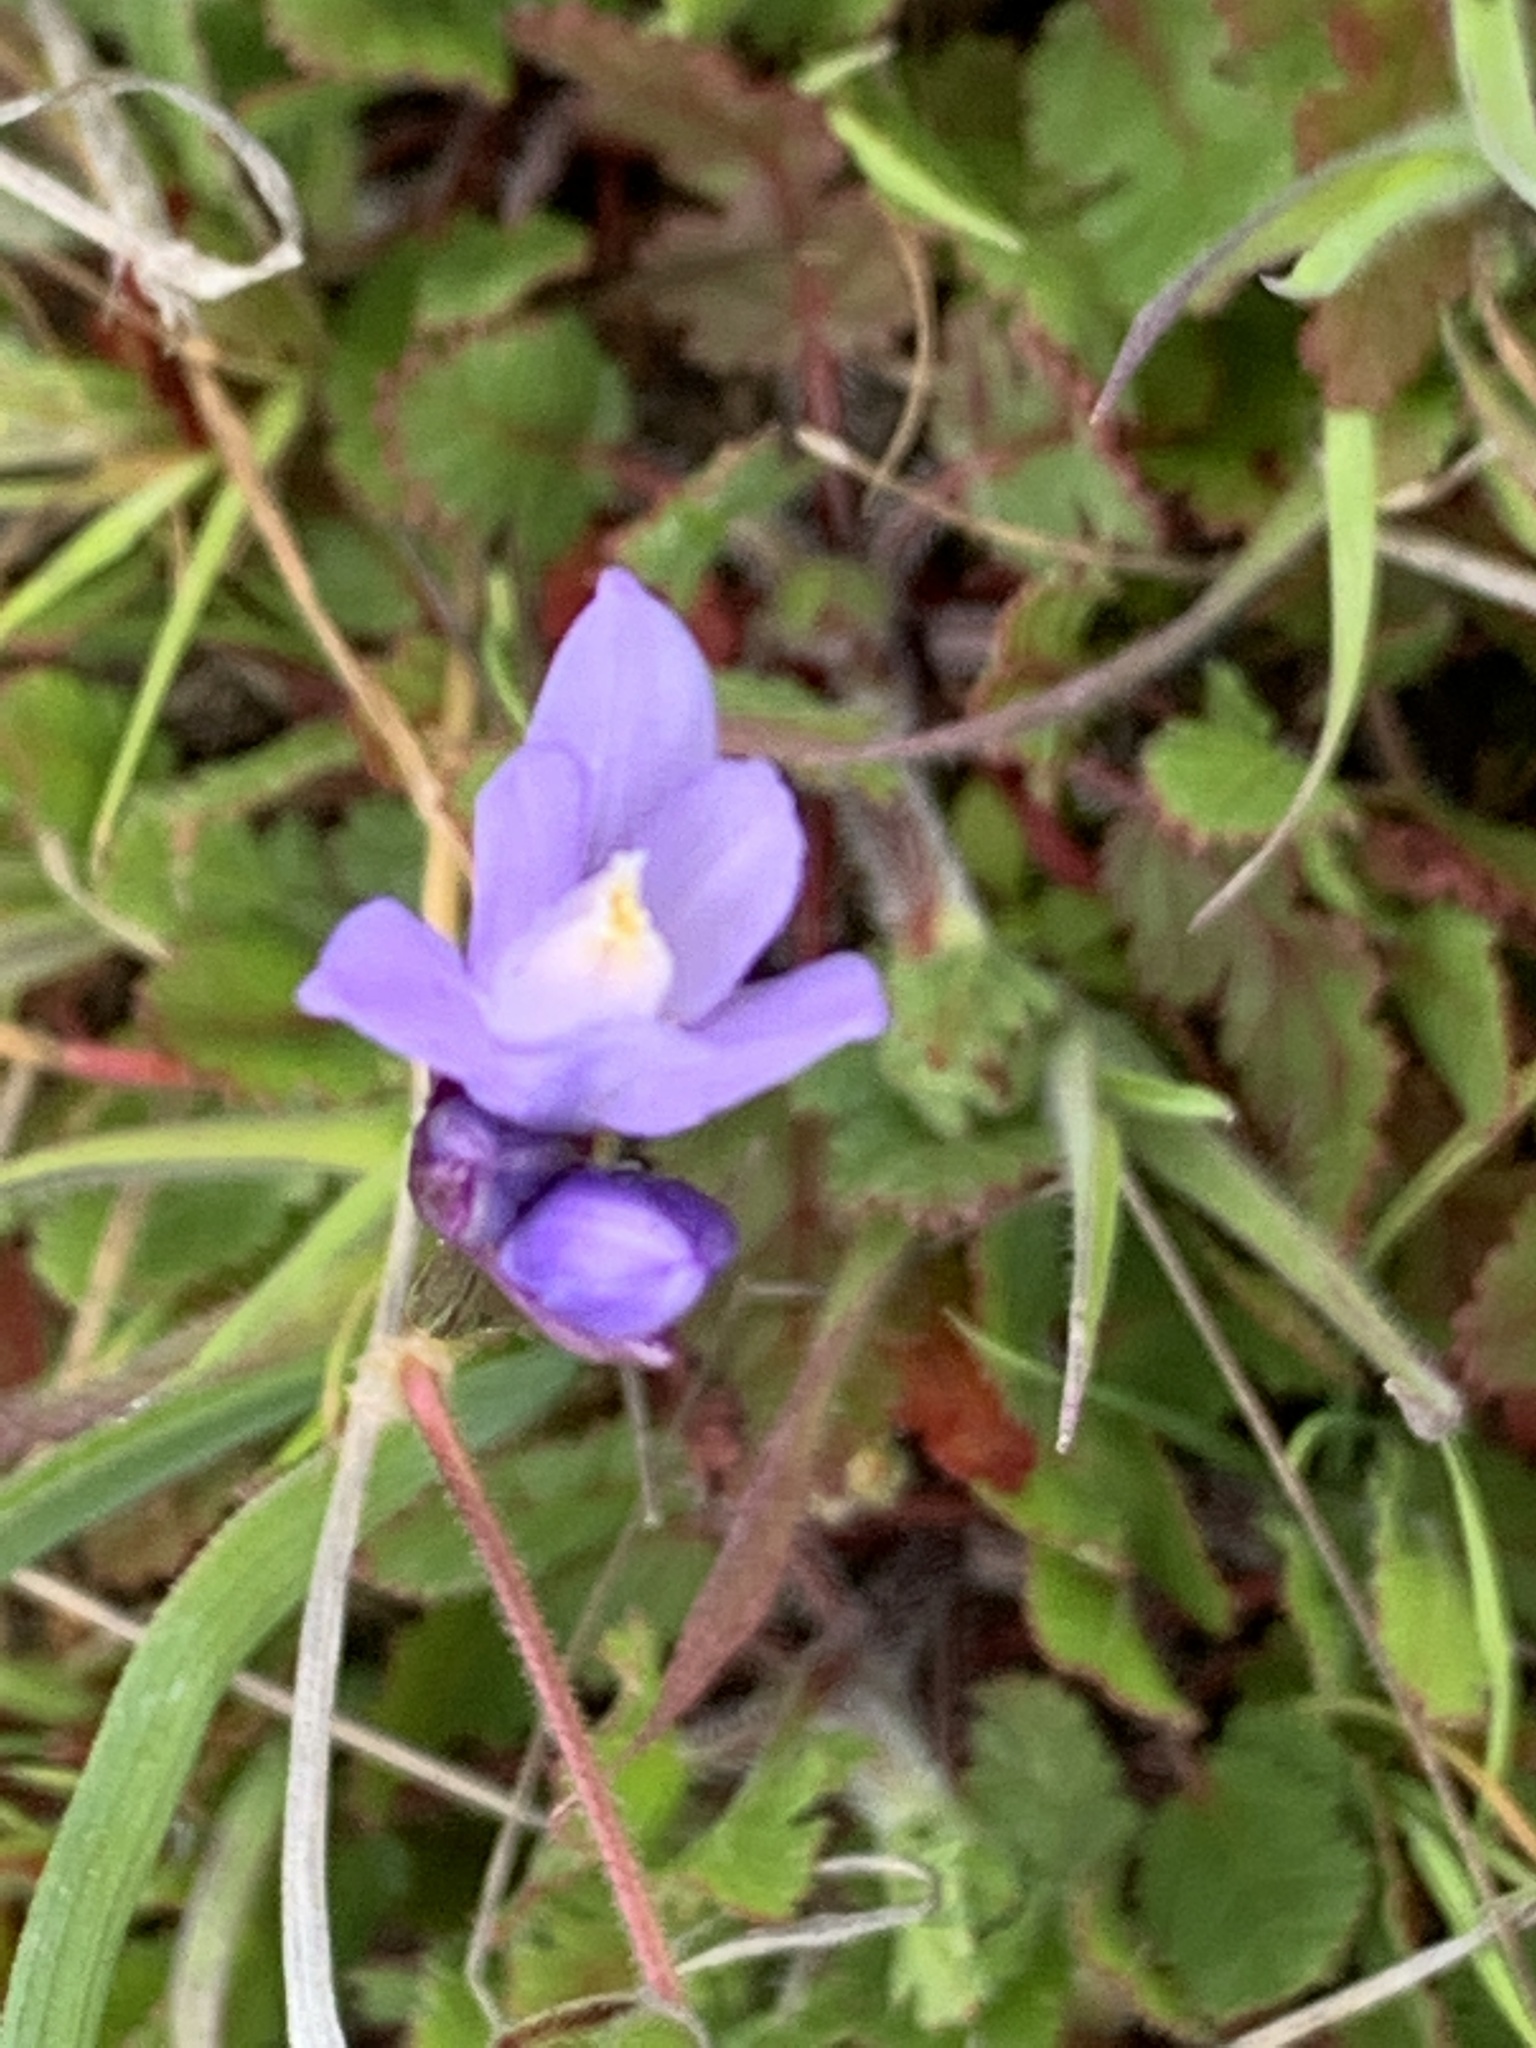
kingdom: Plantae
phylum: Tracheophyta
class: Liliopsida
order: Asparagales
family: Asparagaceae
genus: Dipterostemon
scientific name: Dipterostemon capitatus
